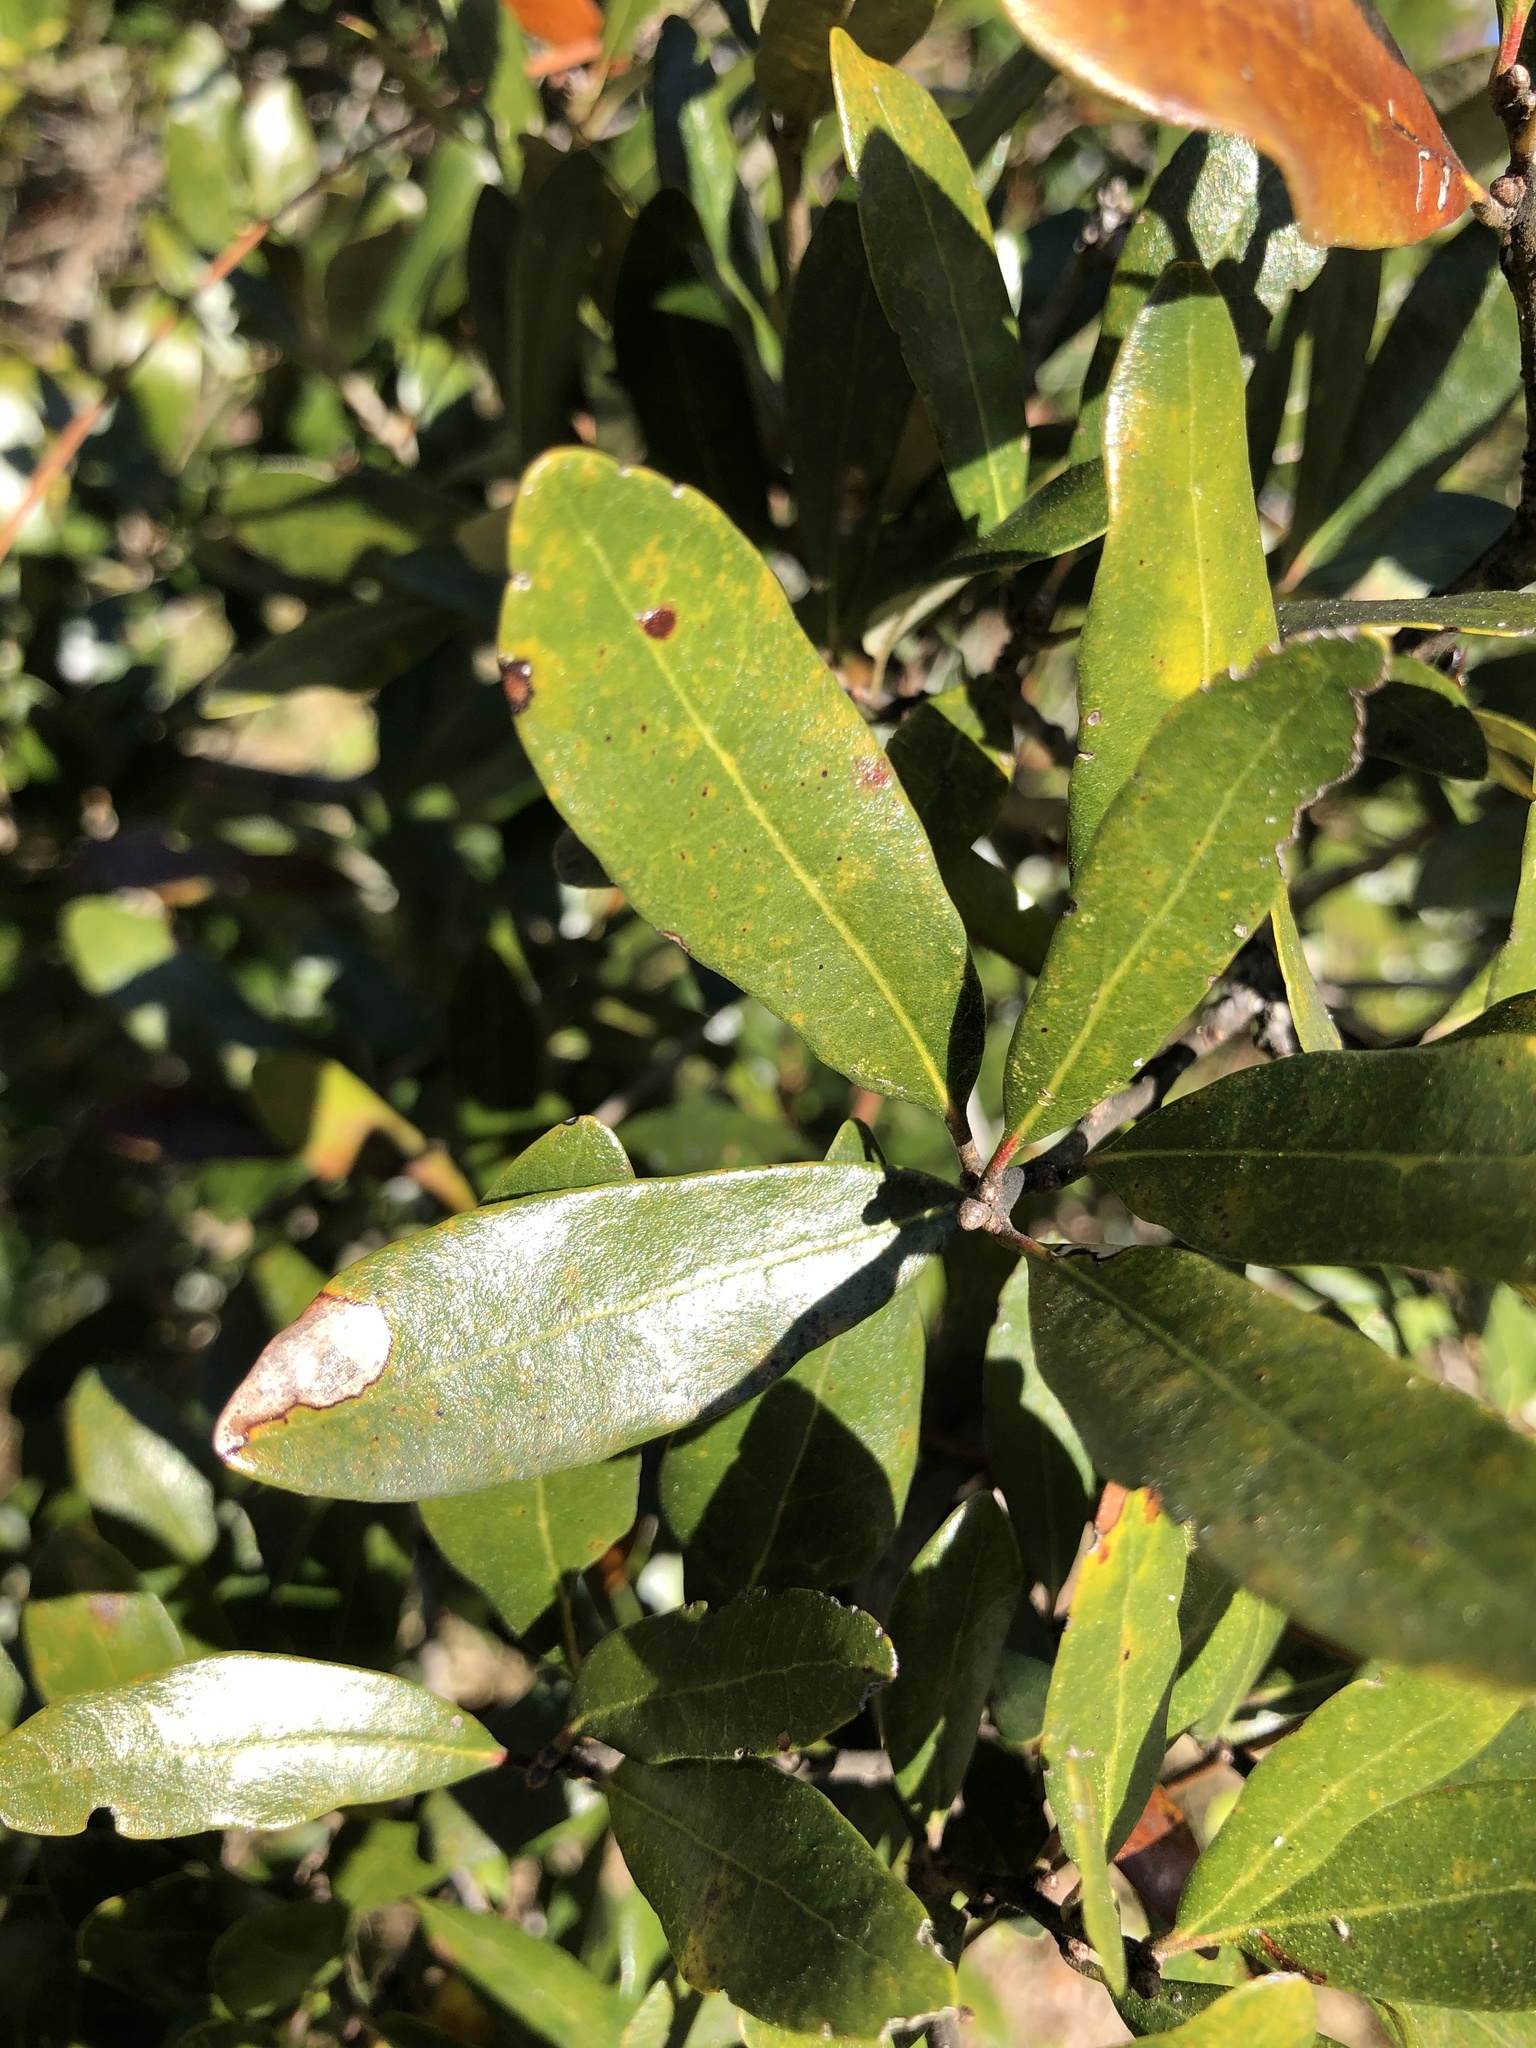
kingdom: Plantae
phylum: Tracheophyta
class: Magnoliopsida
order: Fagales
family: Fagaceae
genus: Quercus
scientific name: Quercus virginiana
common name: Southern live oak
